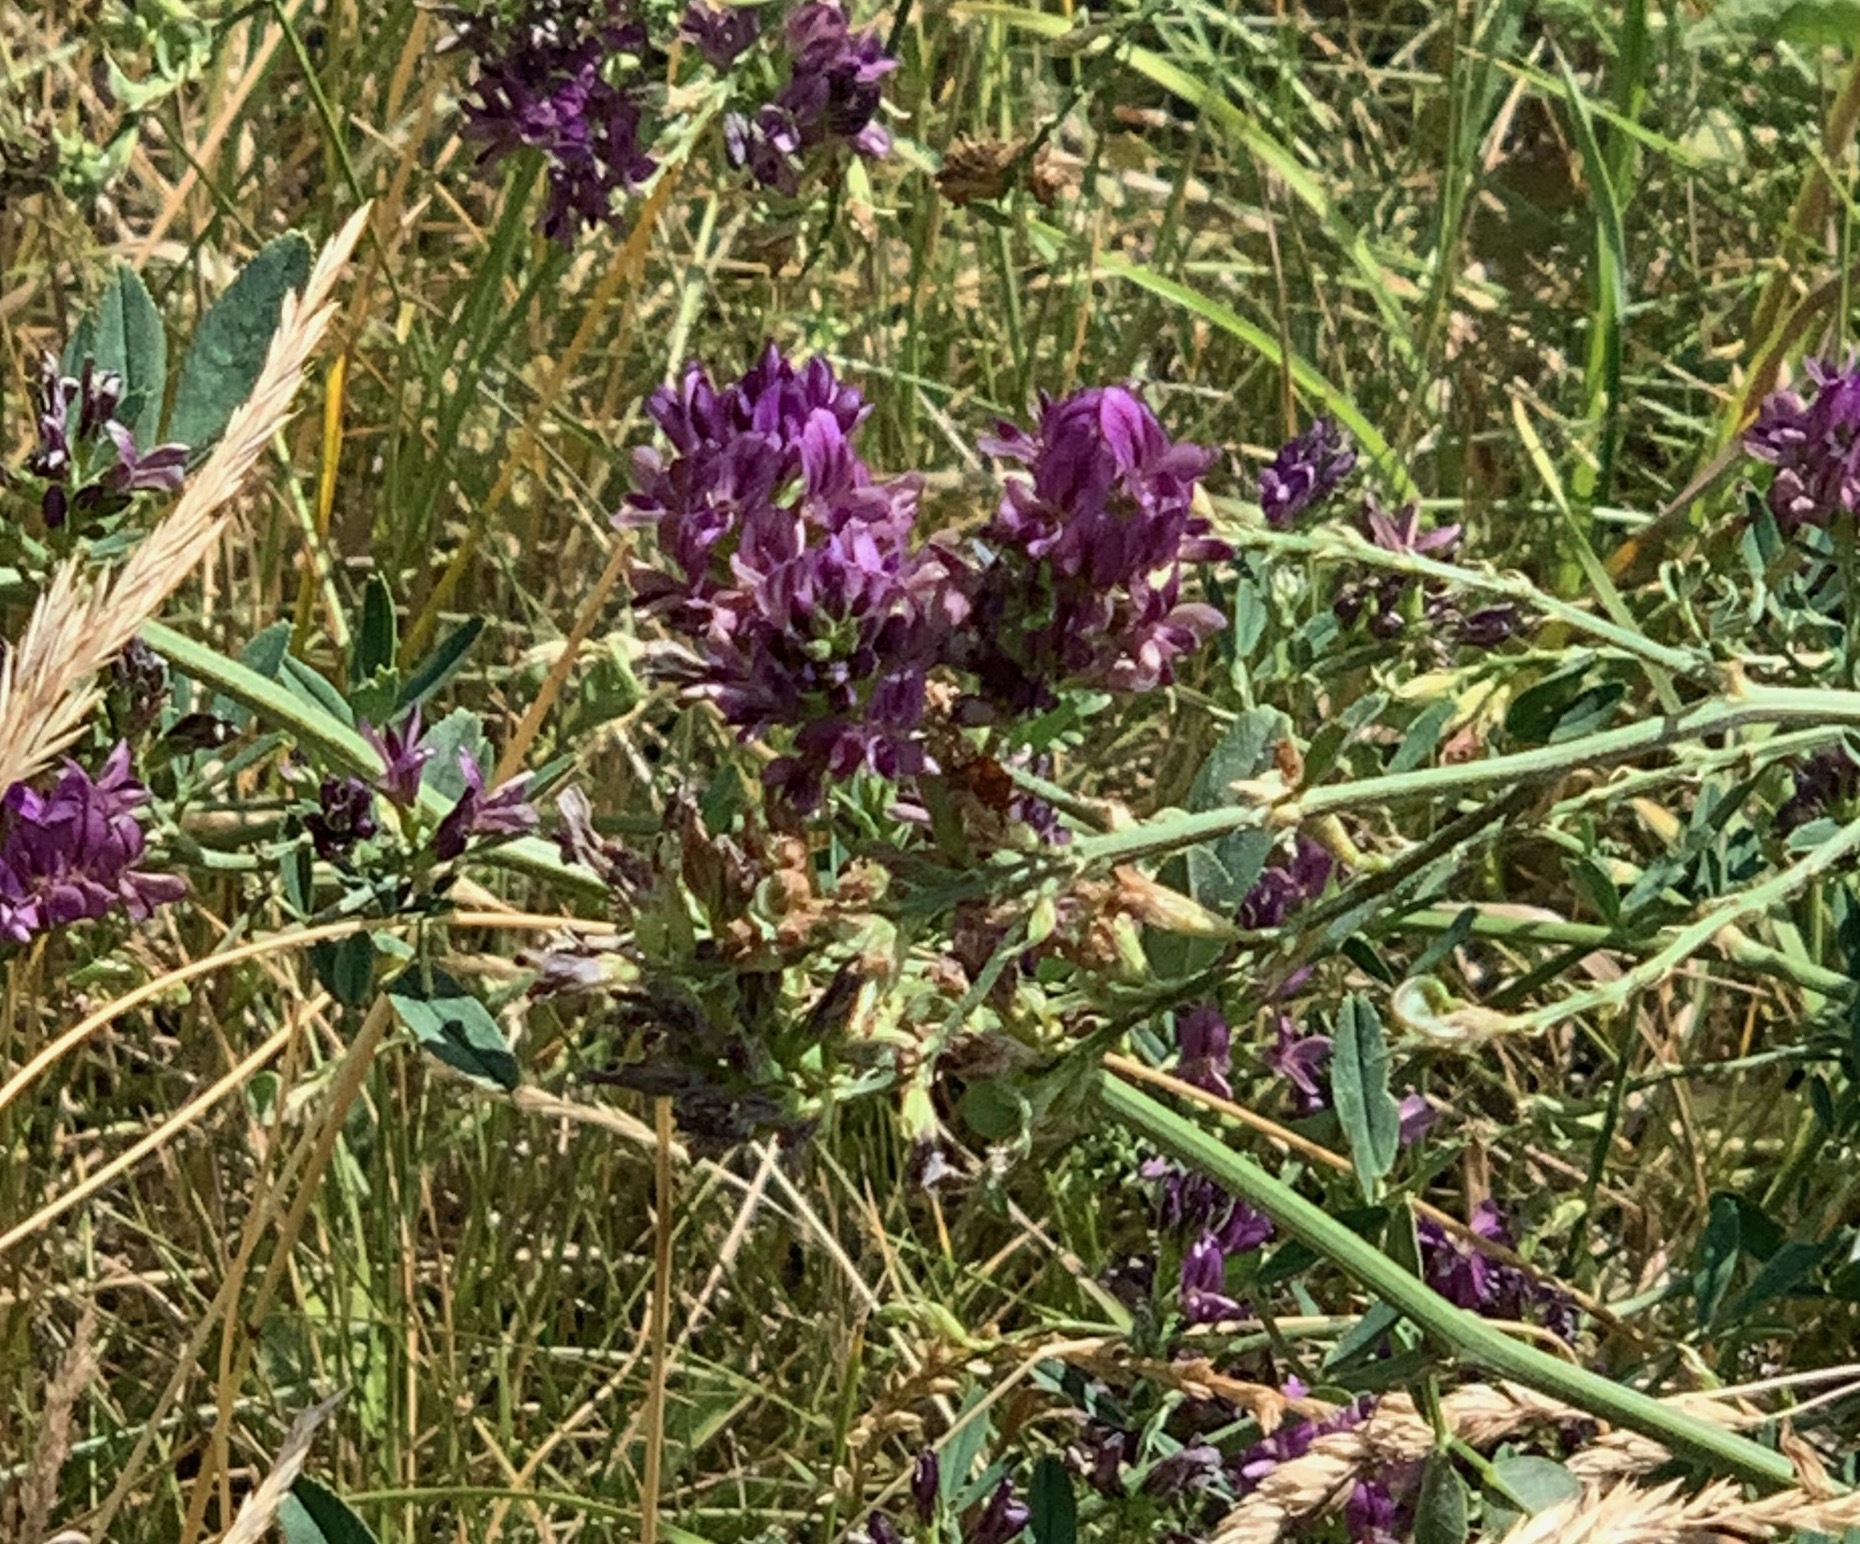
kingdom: Plantae
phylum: Tracheophyta
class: Magnoliopsida
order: Fabales
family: Fabaceae
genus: Medicago
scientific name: Medicago sativa
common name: Alfalfa
